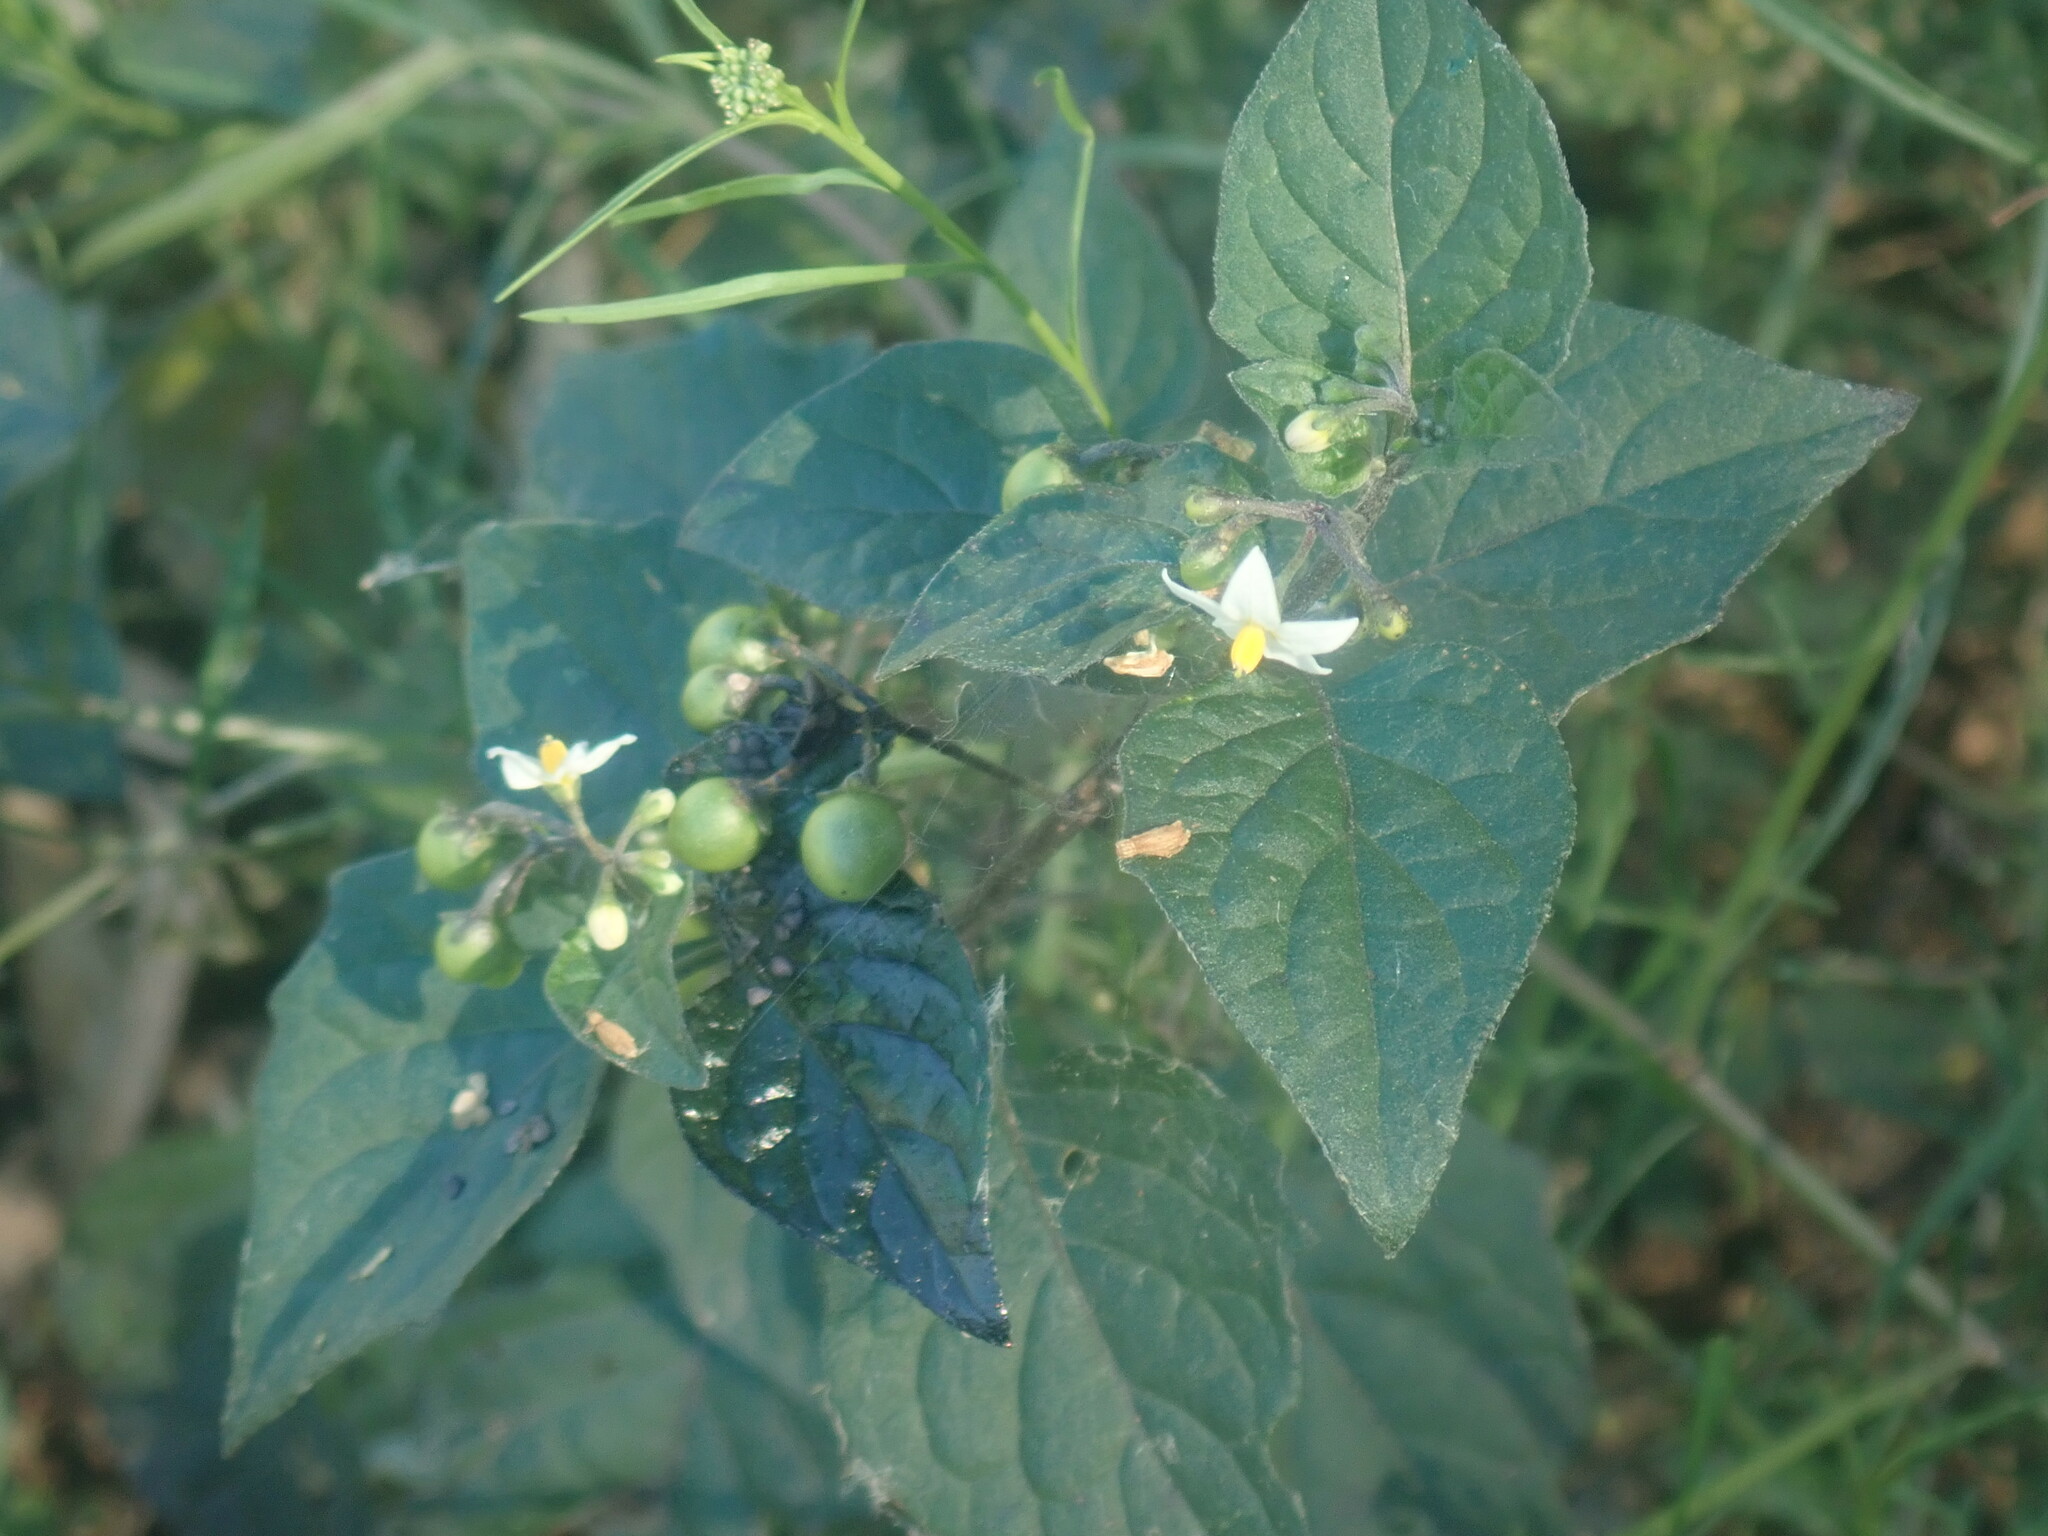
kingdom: Plantae
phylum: Tracheophyta
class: Magnoliopsida
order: Solanales
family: Solanaceae
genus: Solanum
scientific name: Solanum nigrum
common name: Black nightshade
